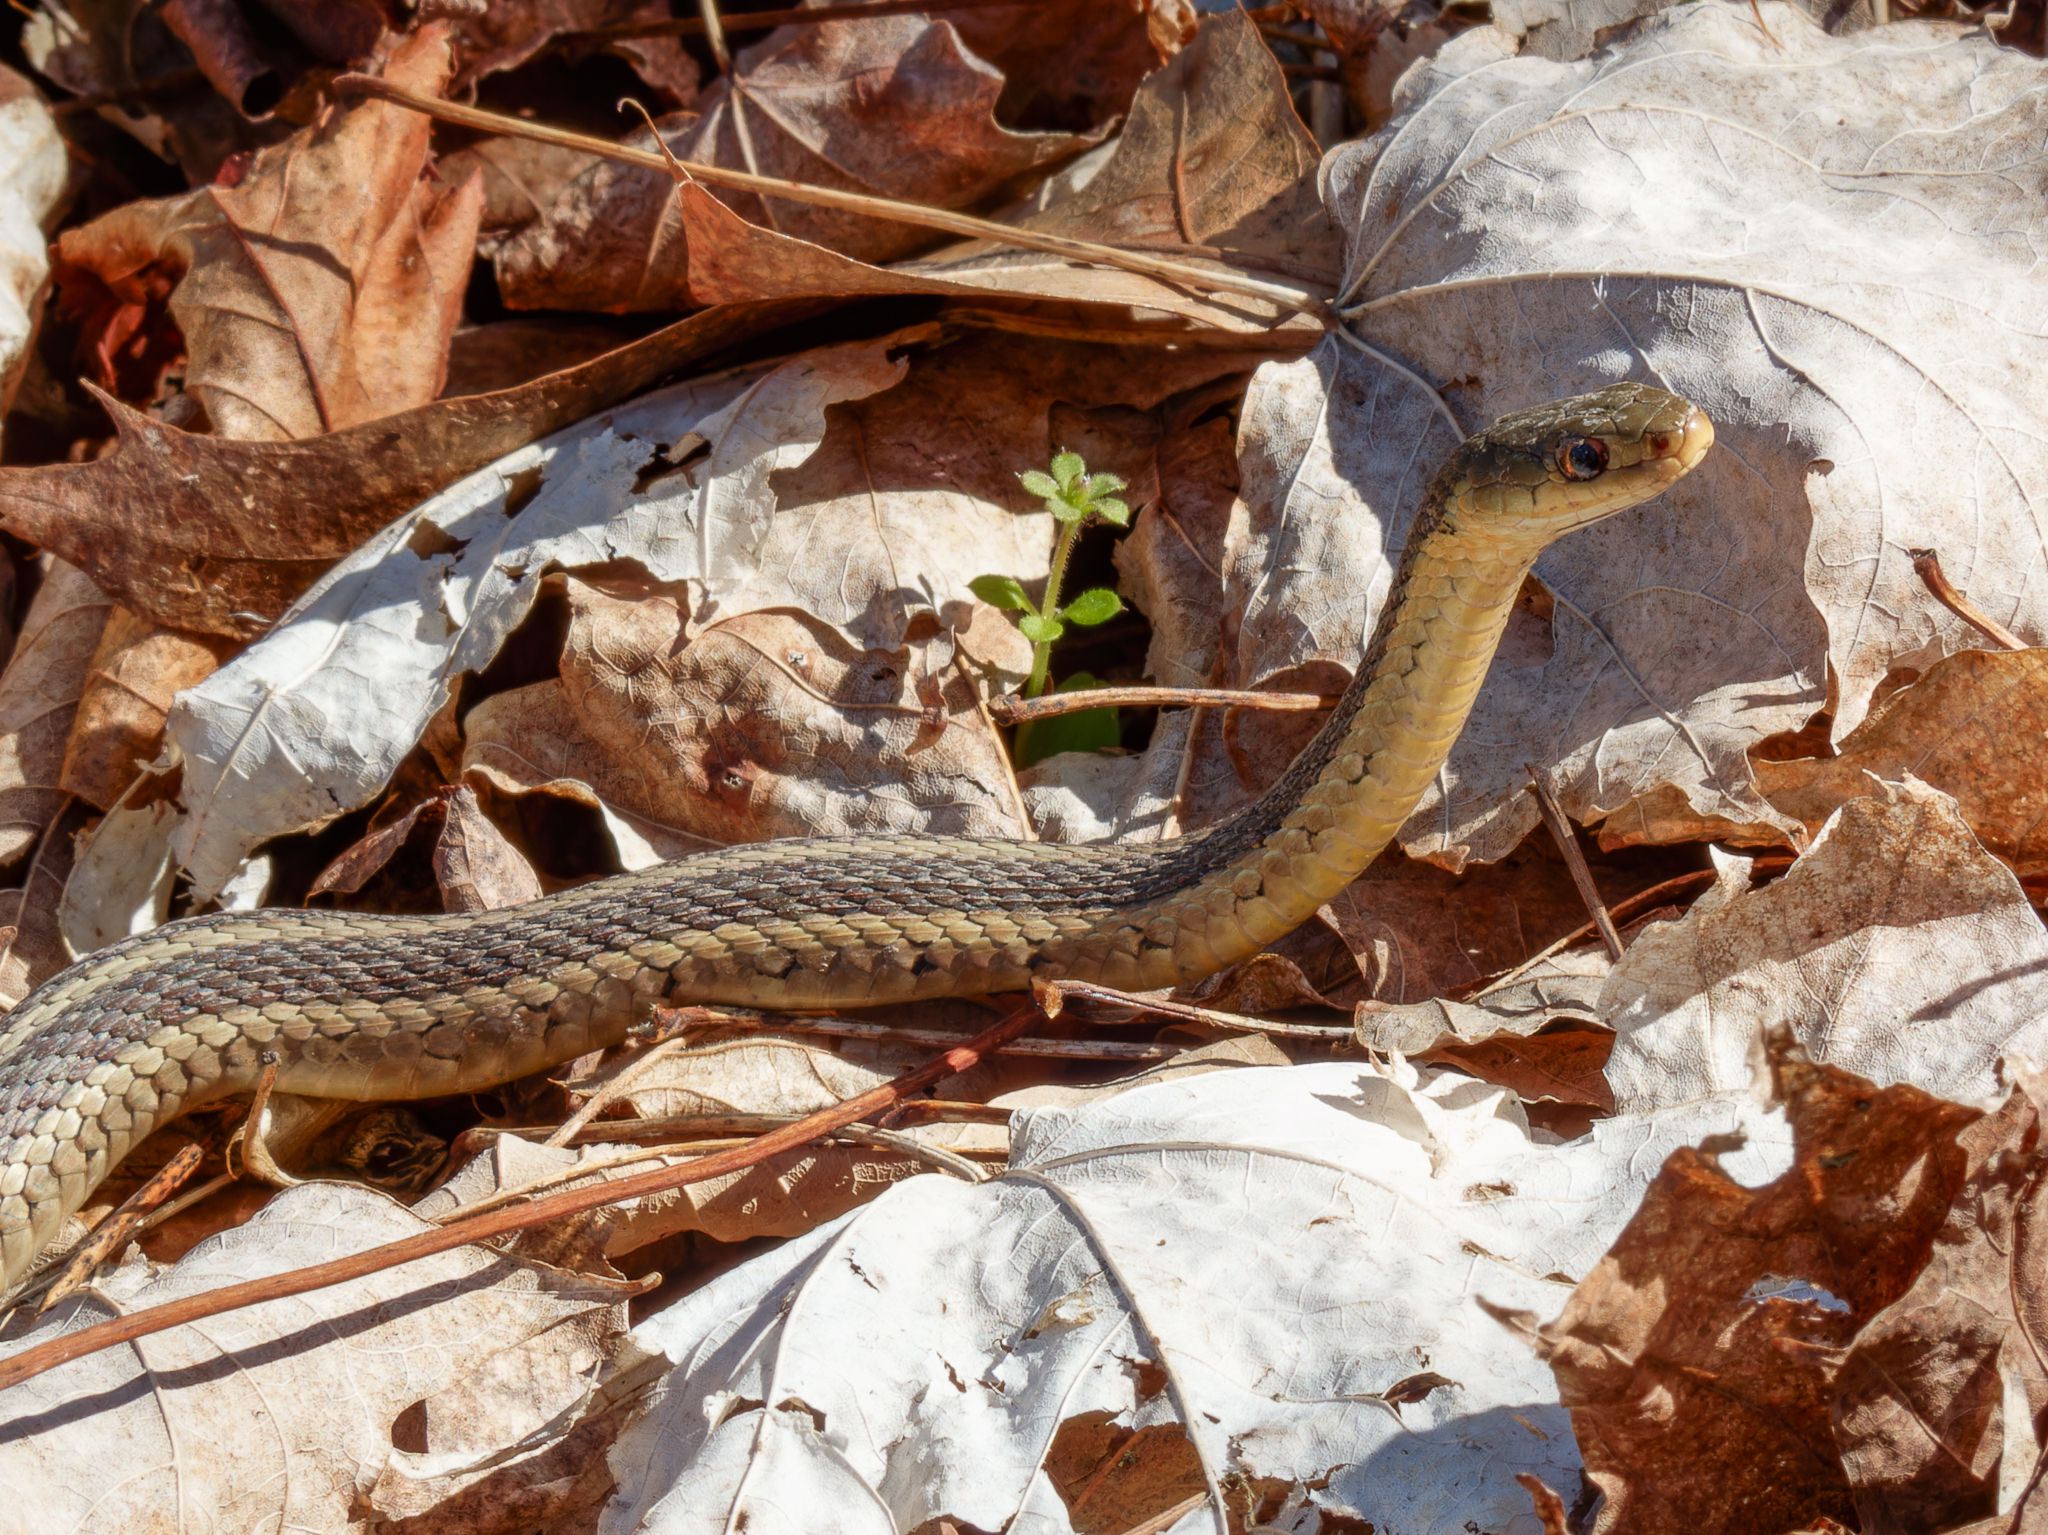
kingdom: Animalia
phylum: Chordata
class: Squamata
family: Colubridae
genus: Thamnophis
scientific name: Thamnophis sirtalis
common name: Common garter snake
